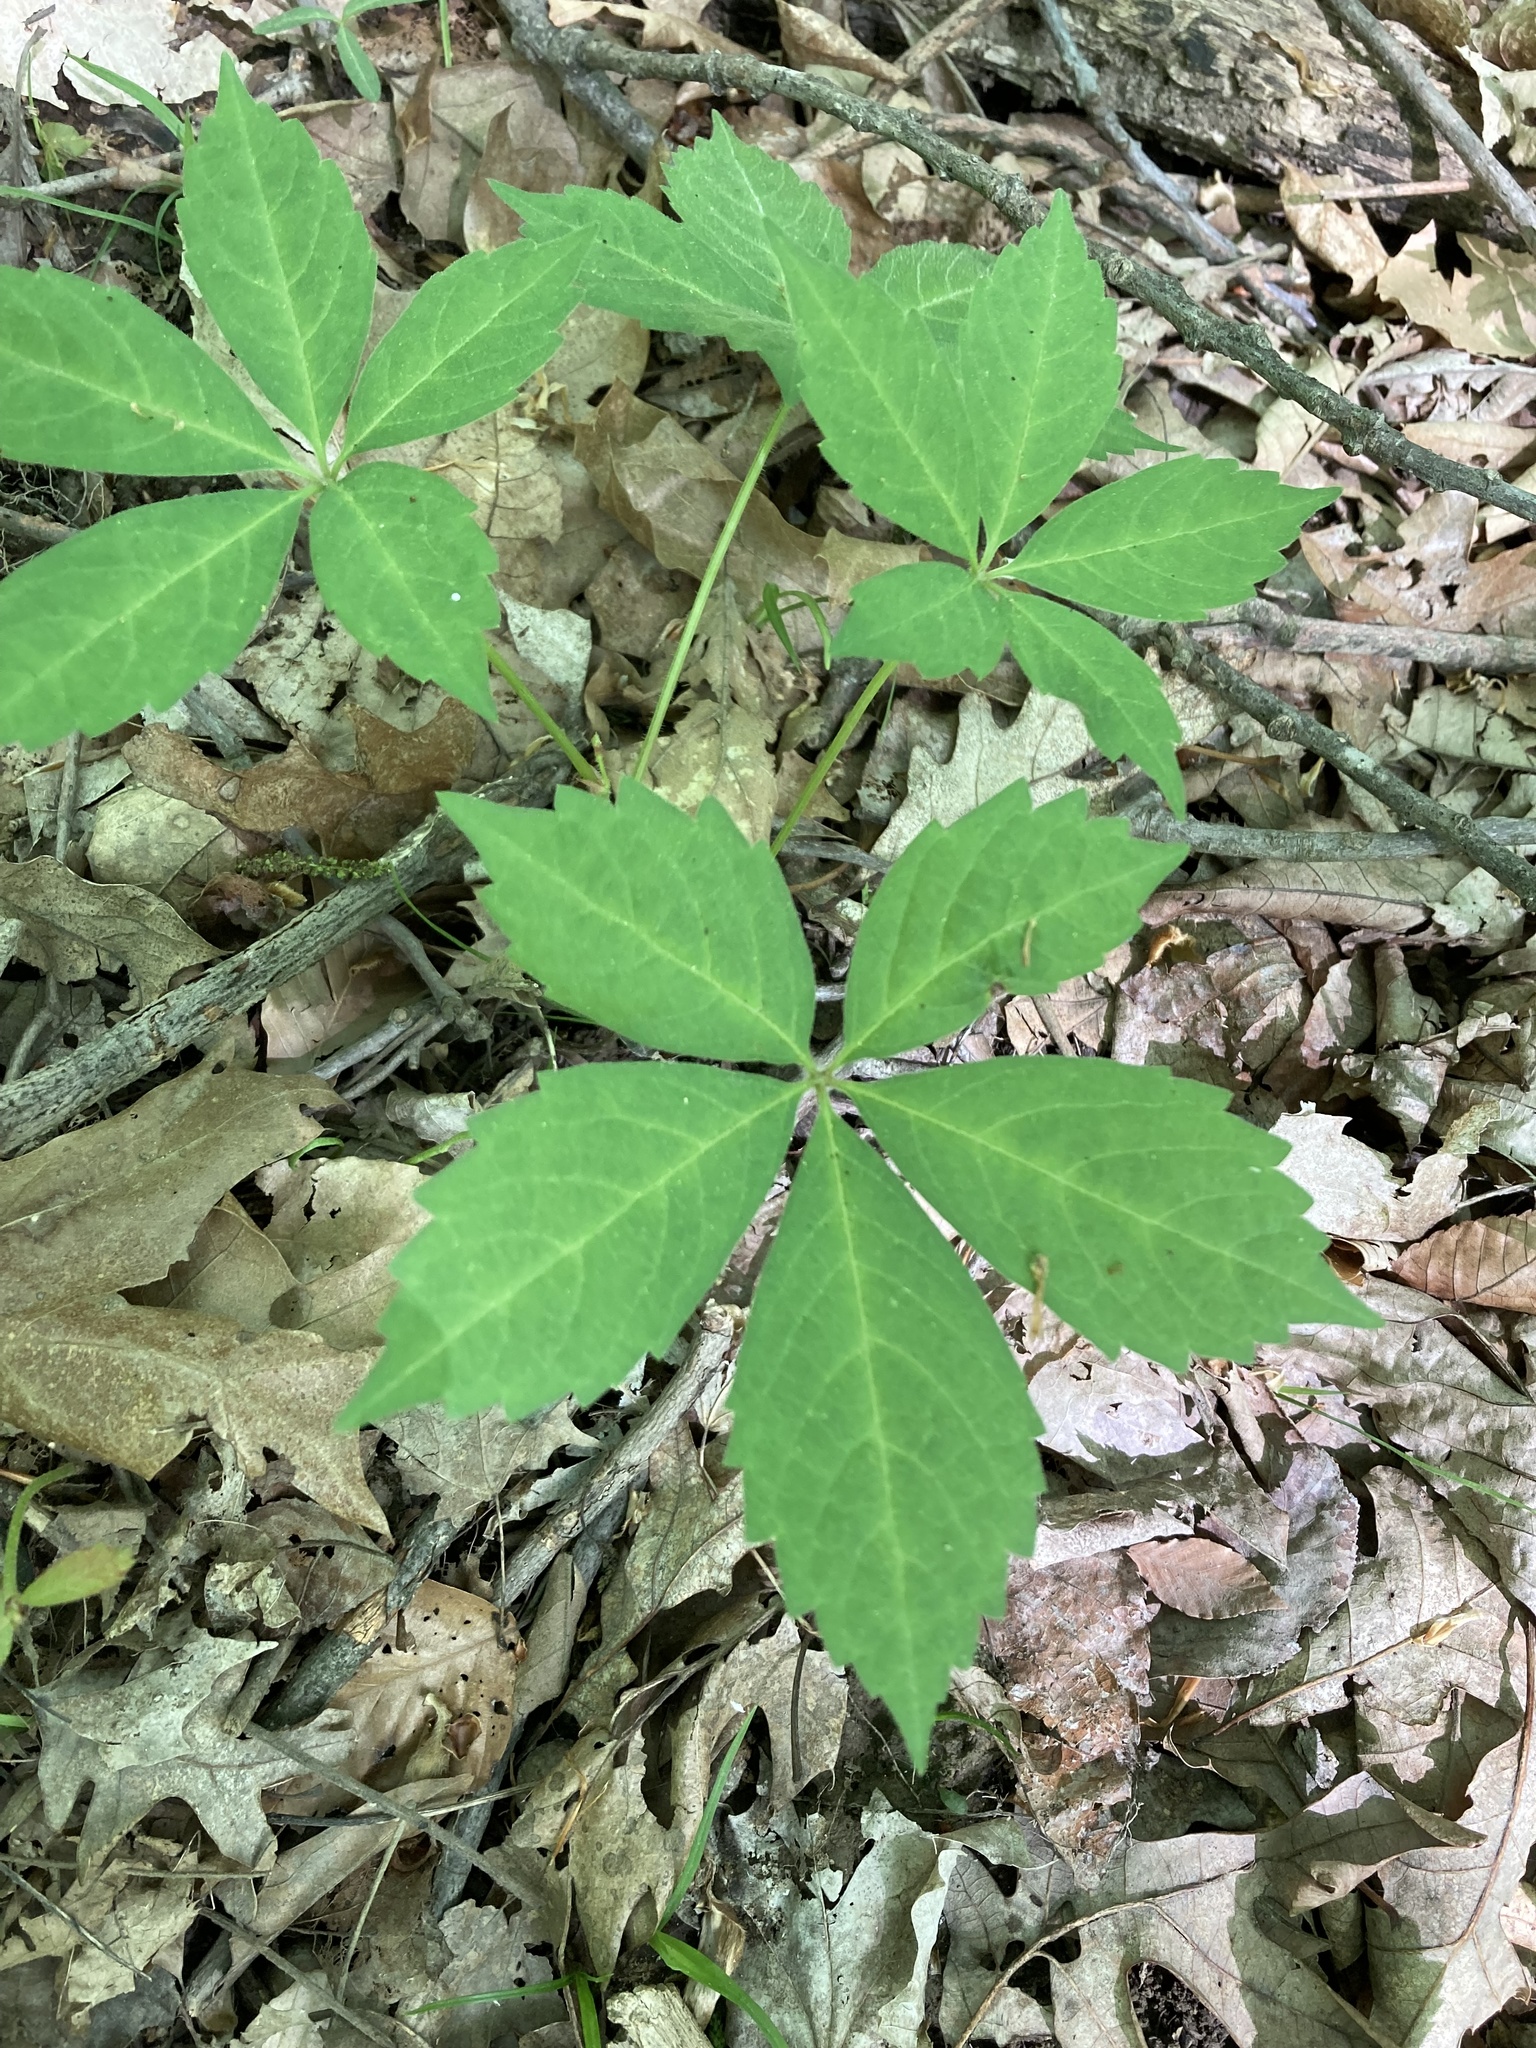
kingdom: Plantae
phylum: Tracheophyta
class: Magnoliopsida
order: Vitales
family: Vitaceae
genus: Parthenocissus
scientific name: Parthenocissus quinquefolia
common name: Virginia-creeper
